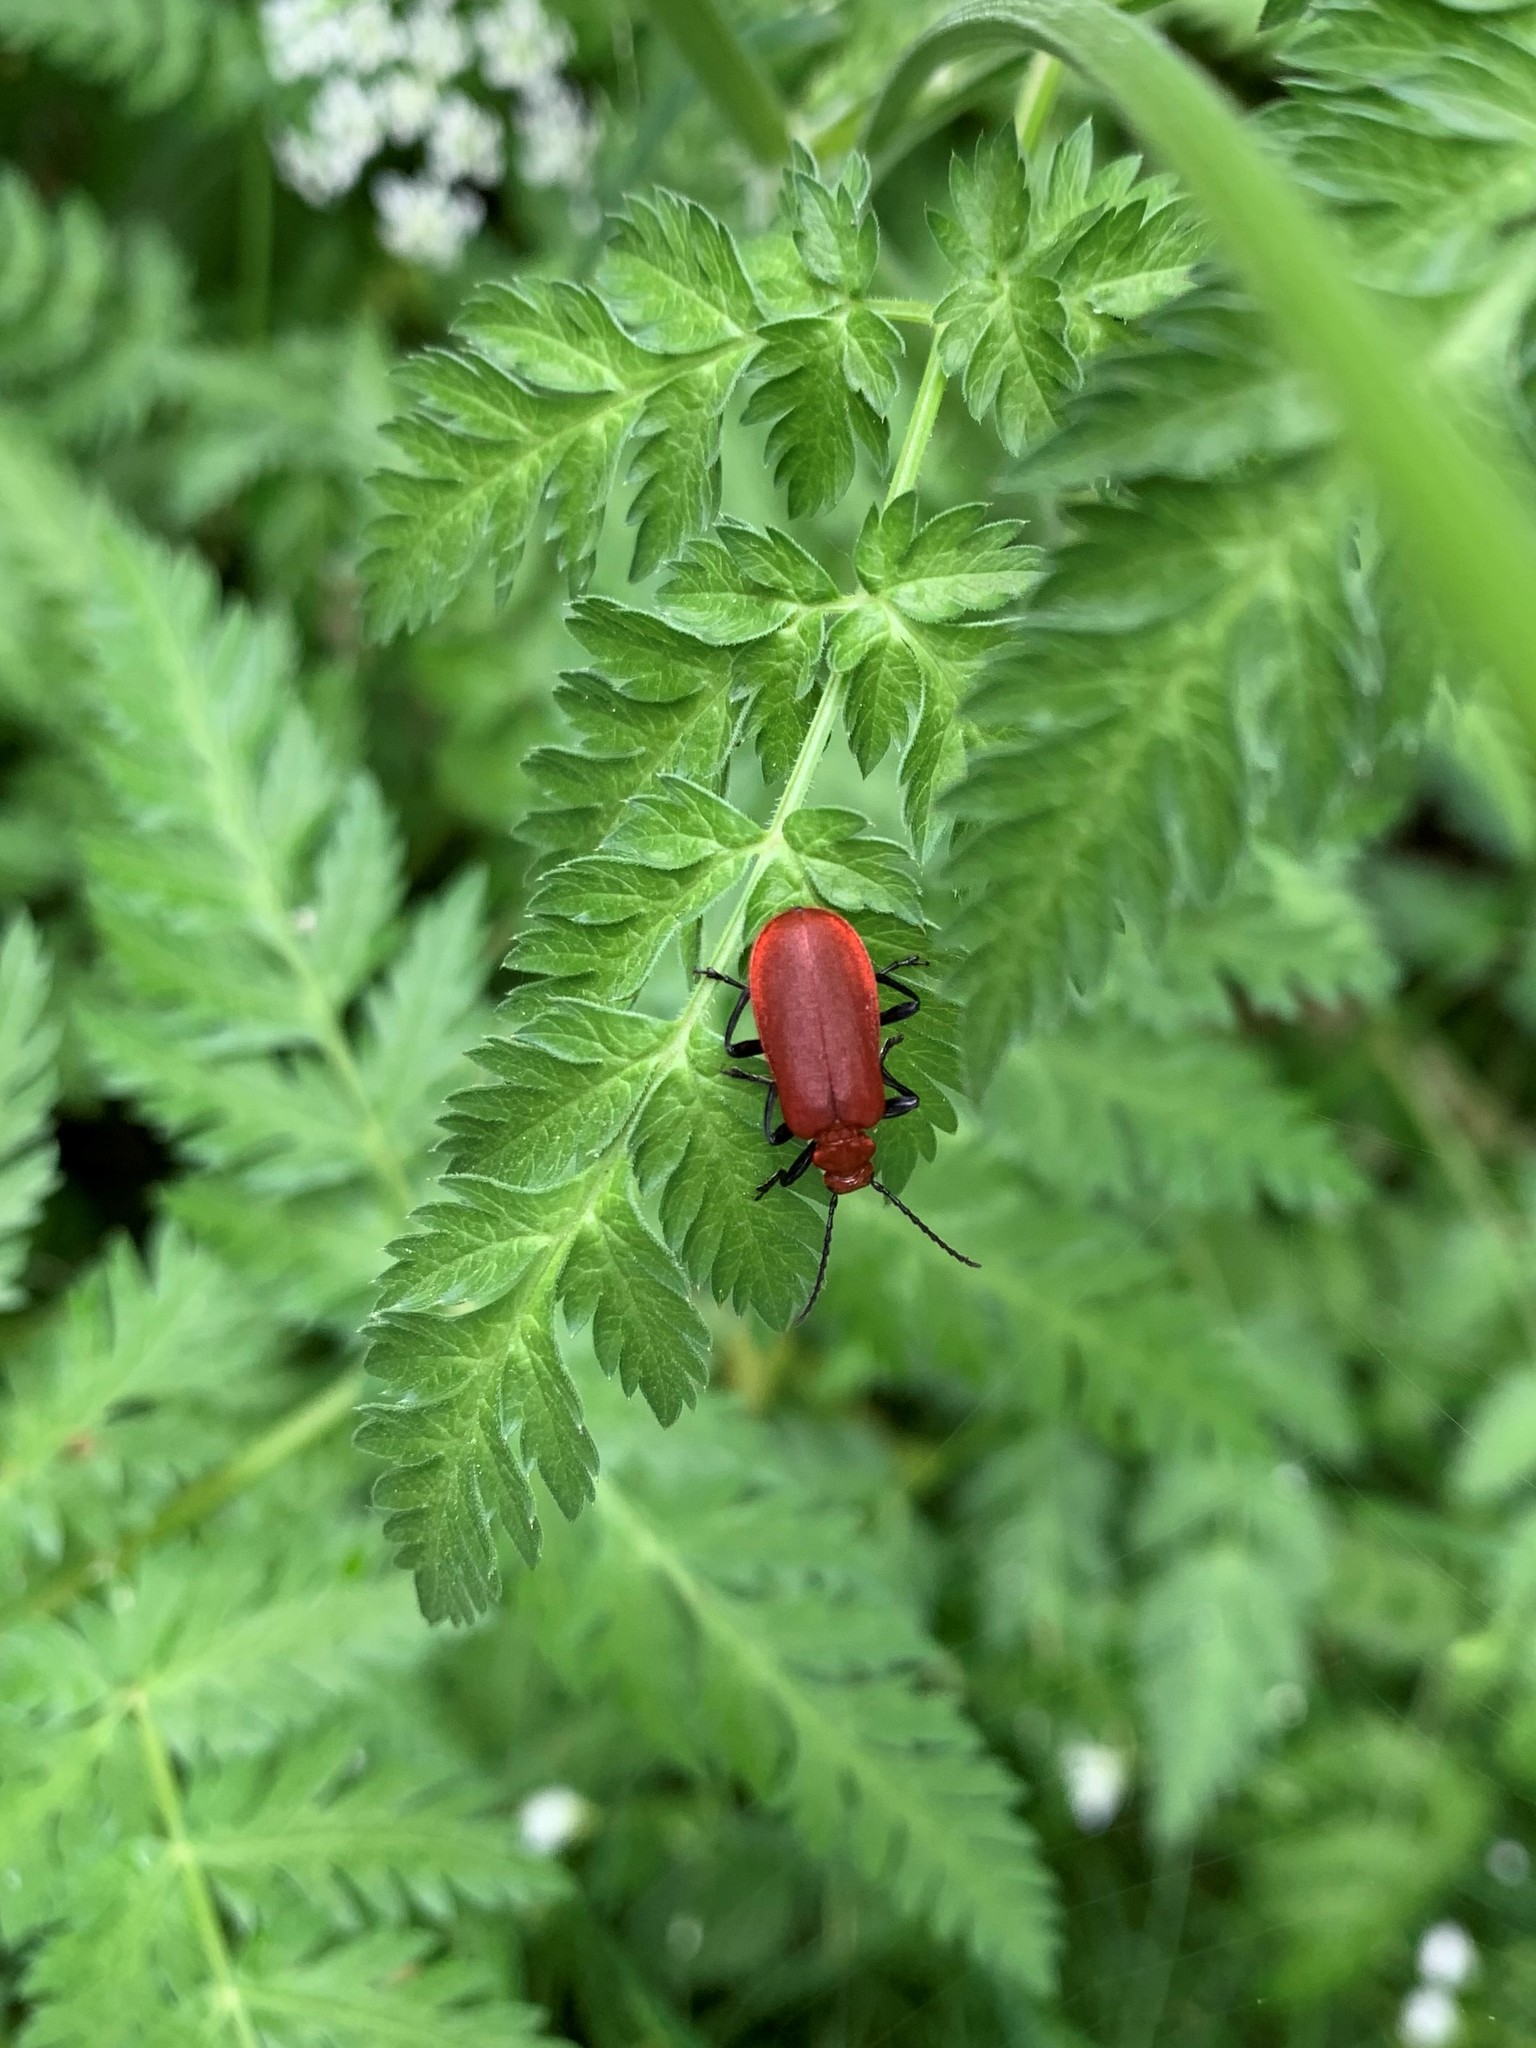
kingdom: Animalia
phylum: Arthropoda
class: Insecta
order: Coleoptera
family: Pyrochroidae
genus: Pyrochroa
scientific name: Pyrochroa serraticornis
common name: Red-headed cardinal beetle
